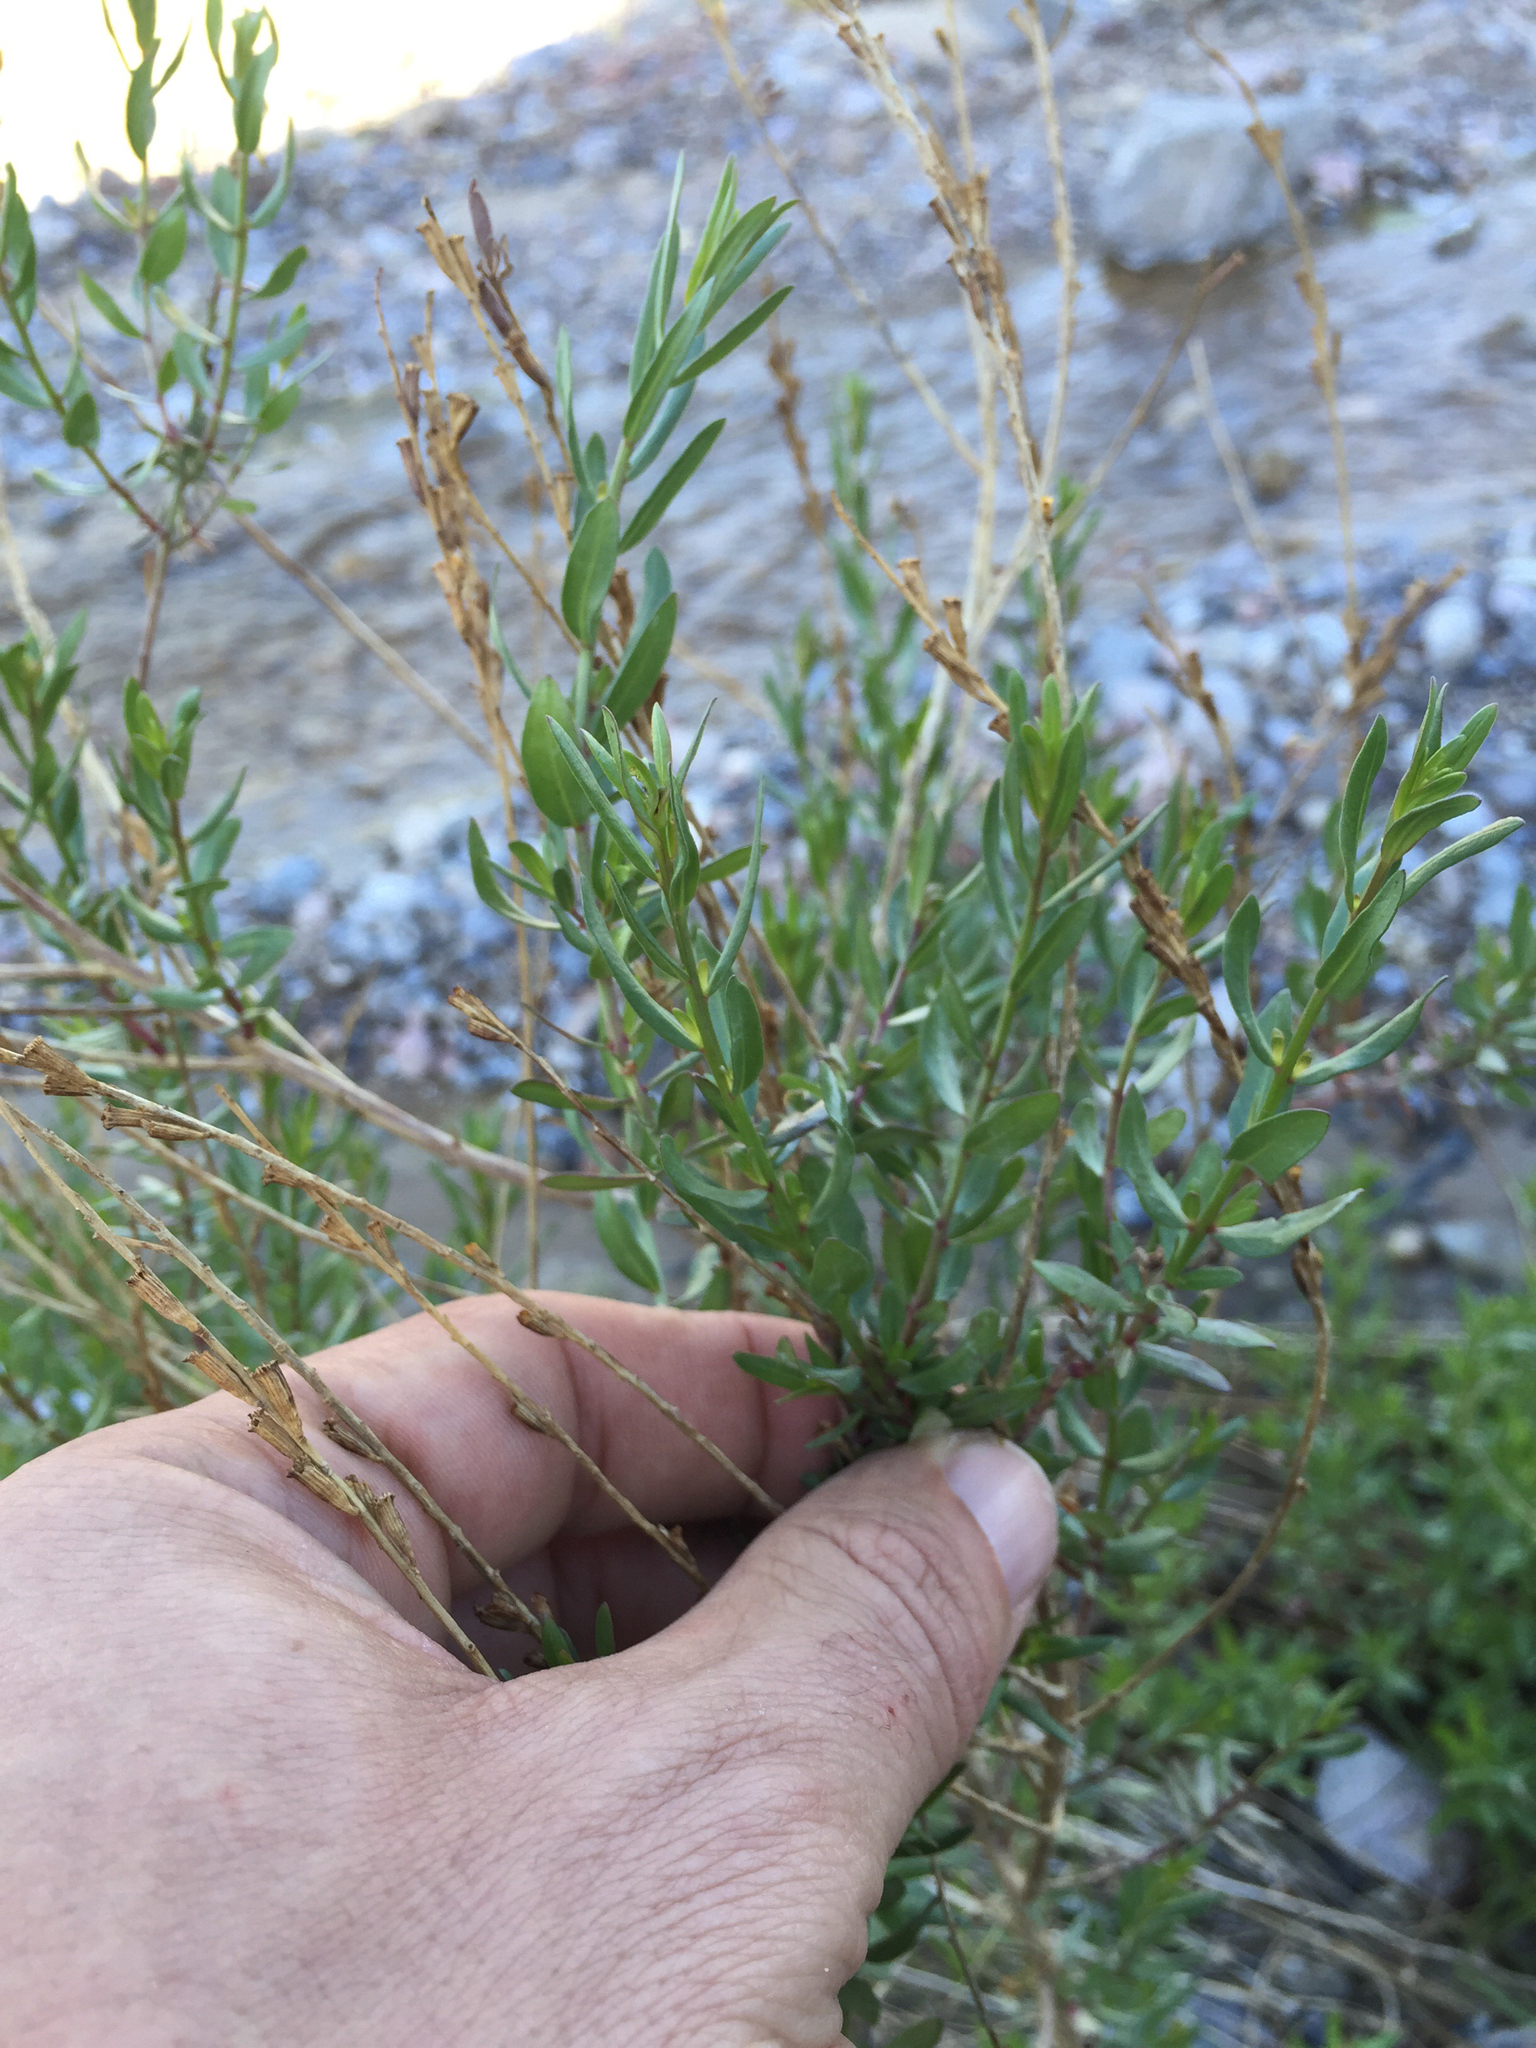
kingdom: Plantae
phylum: Tracheophyta
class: Magnoliopsida
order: Asterales
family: Asteraceae
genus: Pluchea
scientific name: Pluchea sericea
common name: Arrow-weed
